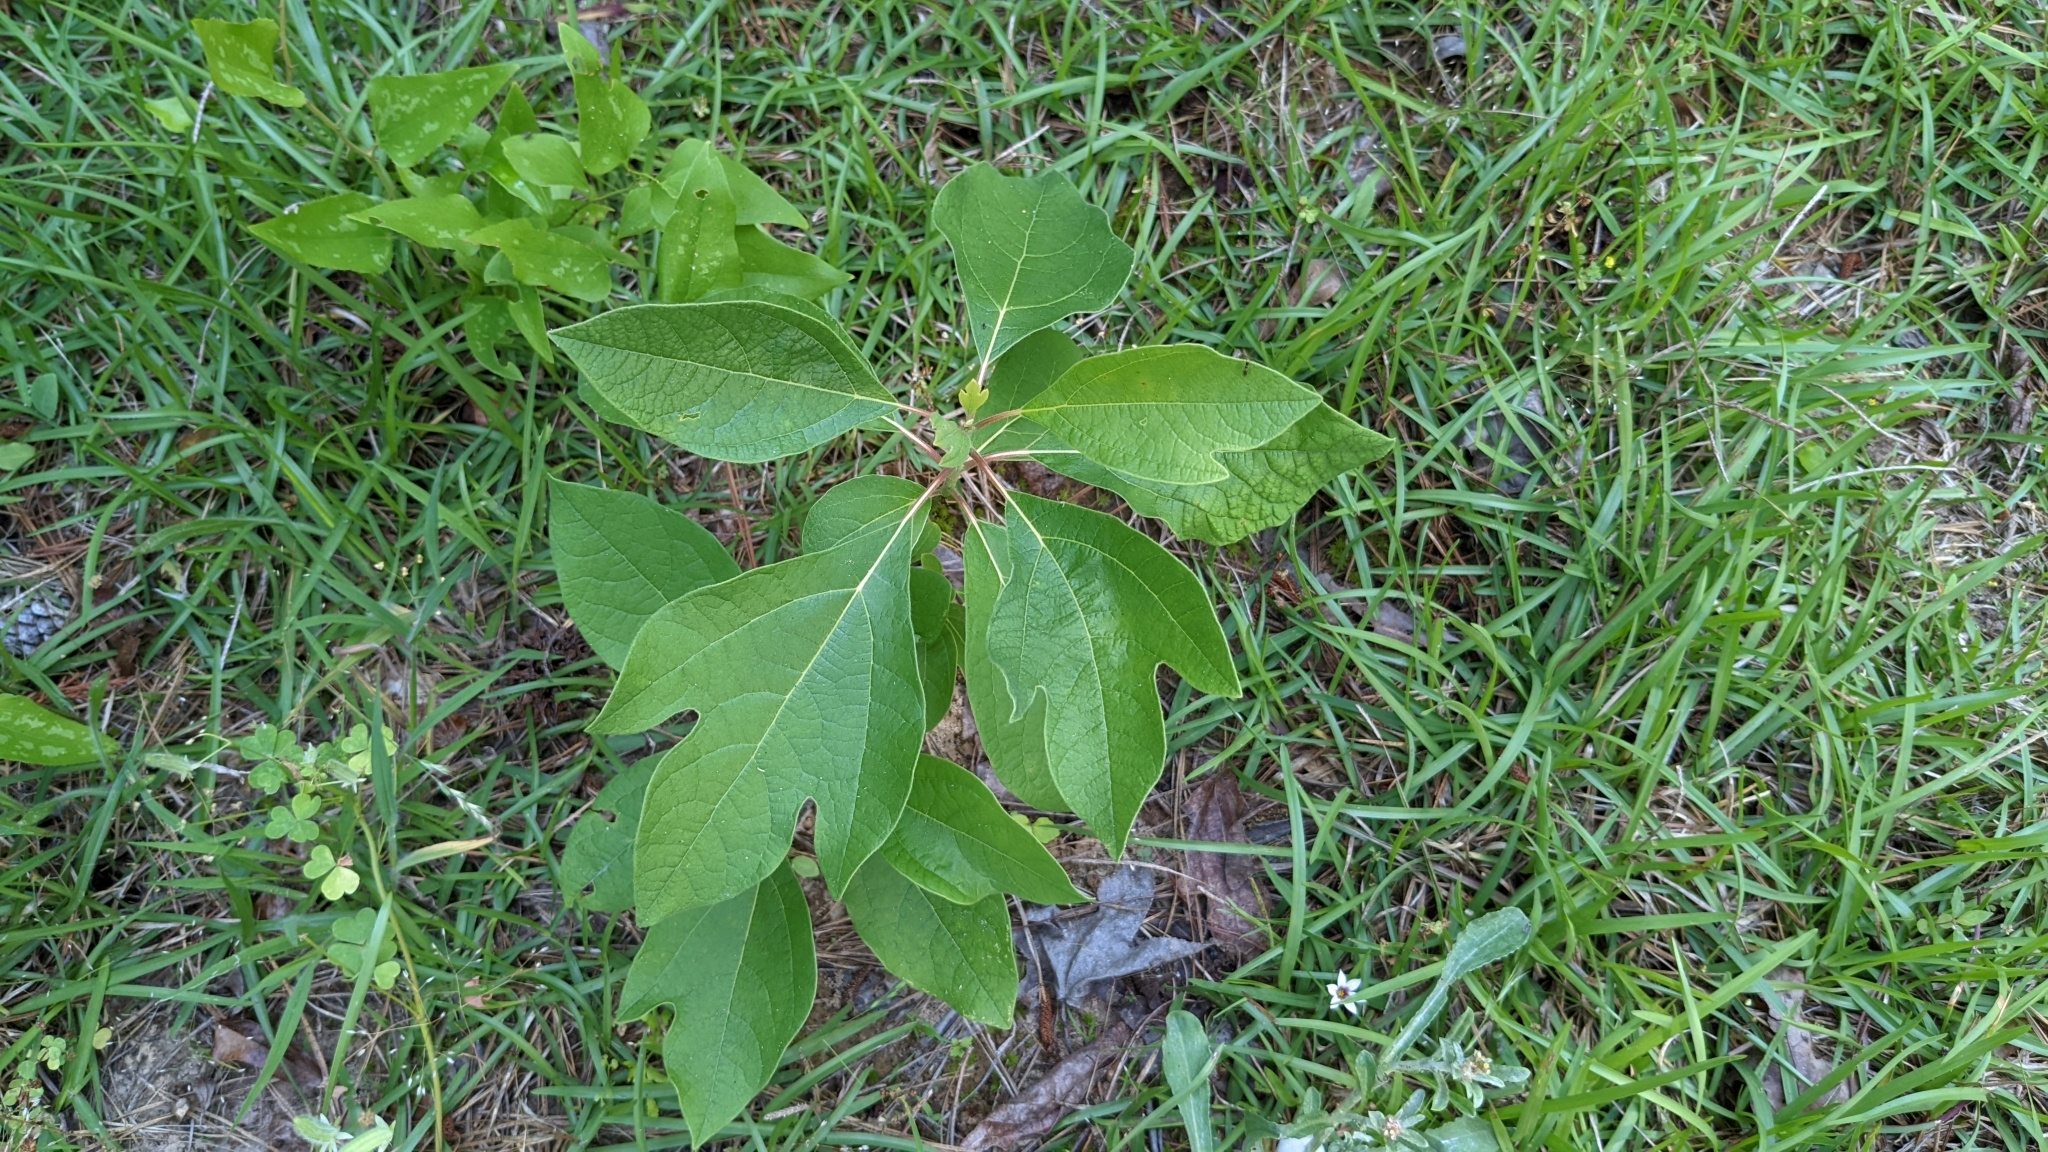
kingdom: Plantae
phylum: Tracheophyta
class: Magnoliopsida
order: Laurales
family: Lauraceae
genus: Sassafras
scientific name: Sassafras albidum
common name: Sassafras
